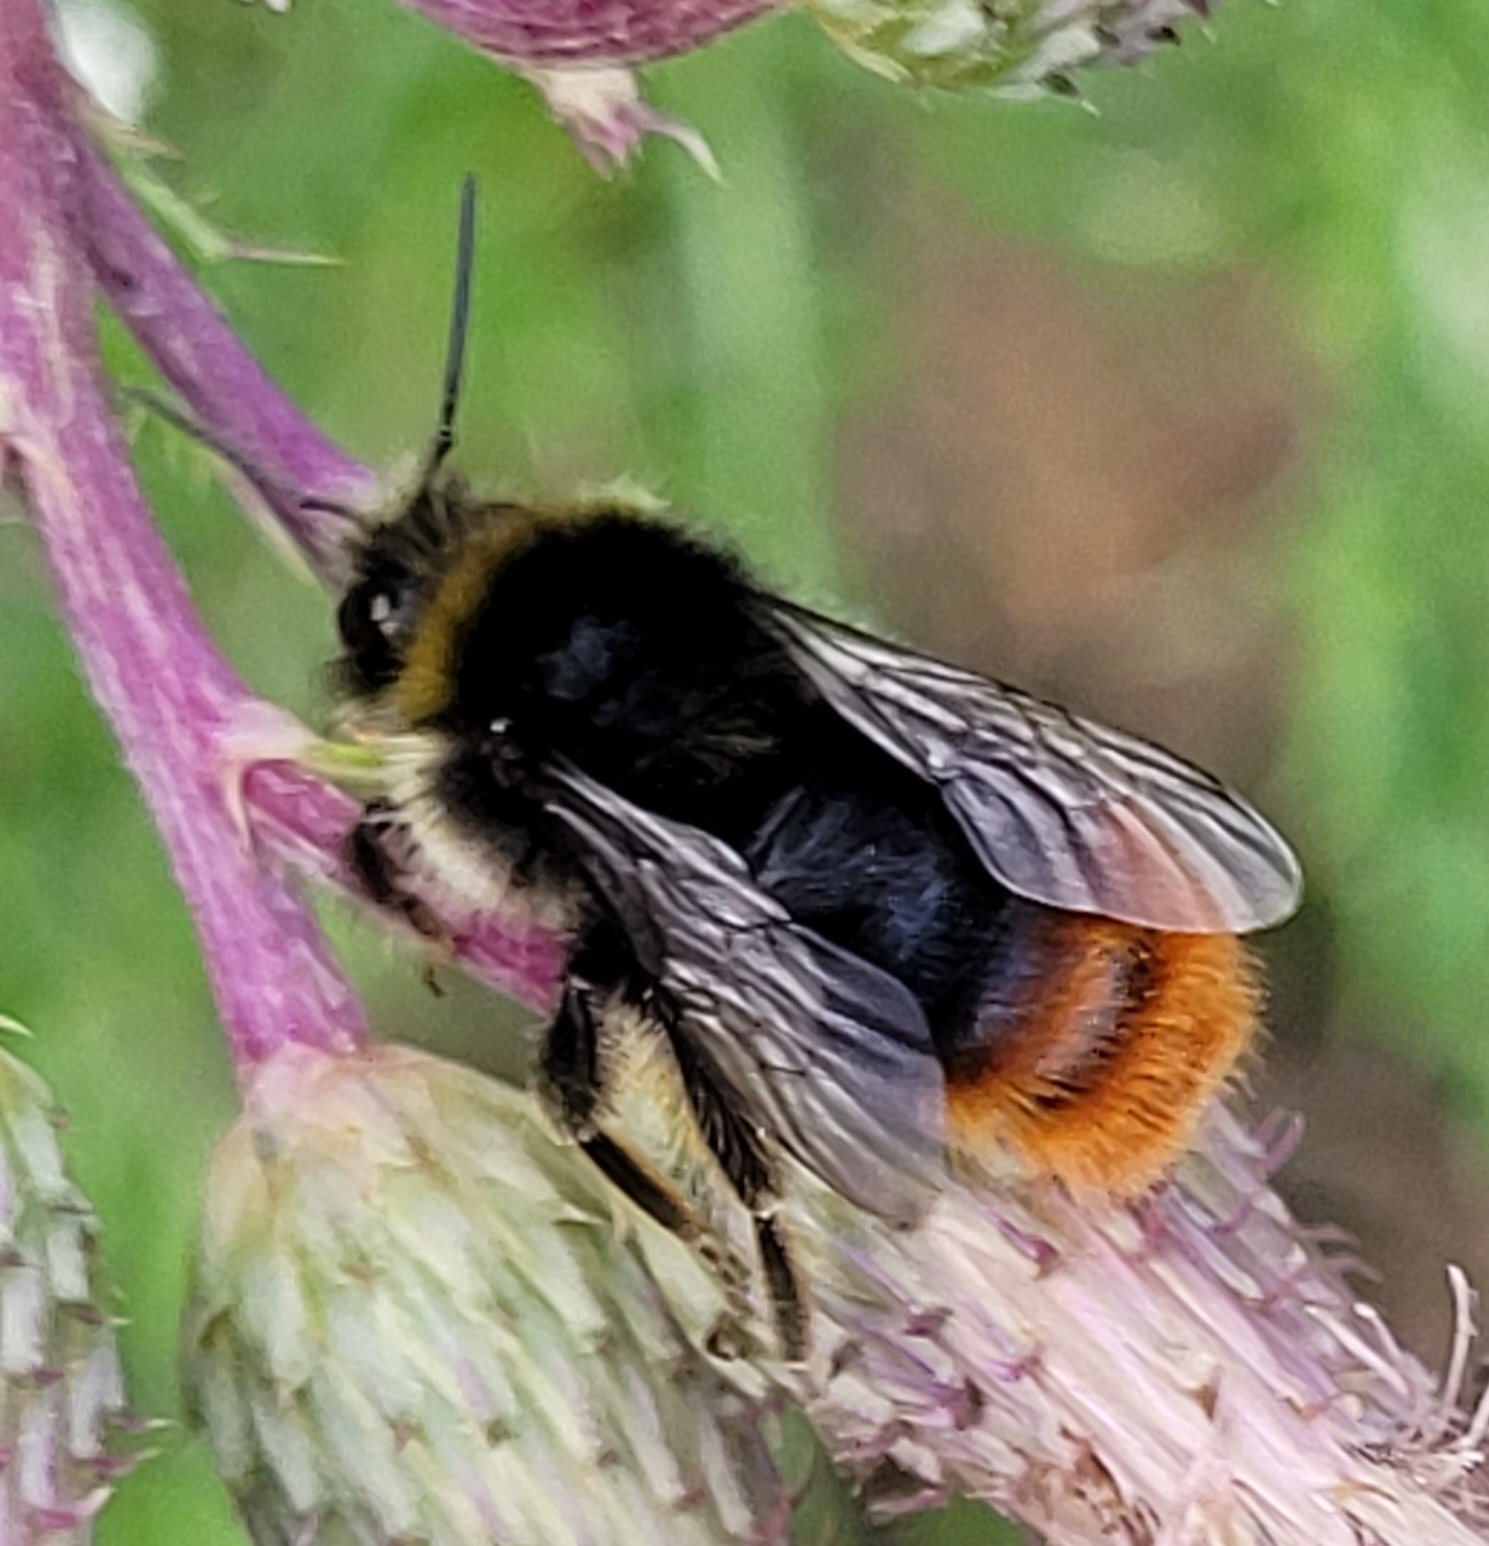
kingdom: Animalia
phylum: Arthropoda
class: Insecta
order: Hymenoptera
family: Apidae
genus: Bombus
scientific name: Bombus lapidarius
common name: Large red-tailed humble-bee
